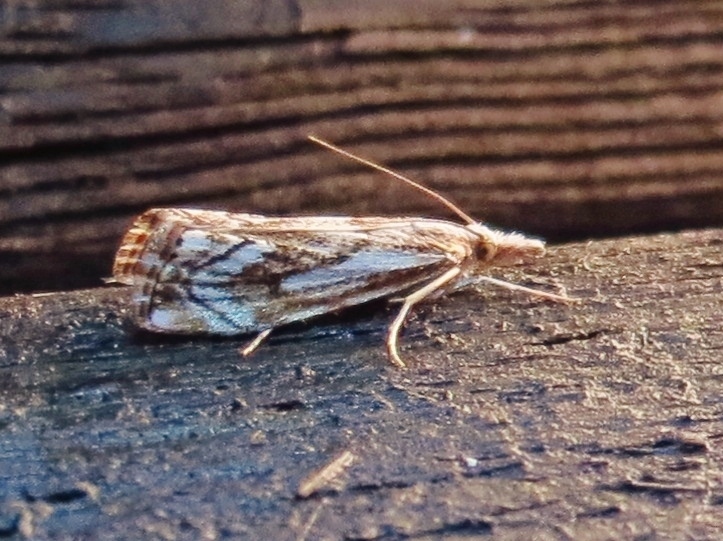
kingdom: Animalia
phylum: Arthropoda
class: Insecta
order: Lepidoptera
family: Crambidae
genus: Catoptria
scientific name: Catoptria falsella
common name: Chequered grass-veneer
